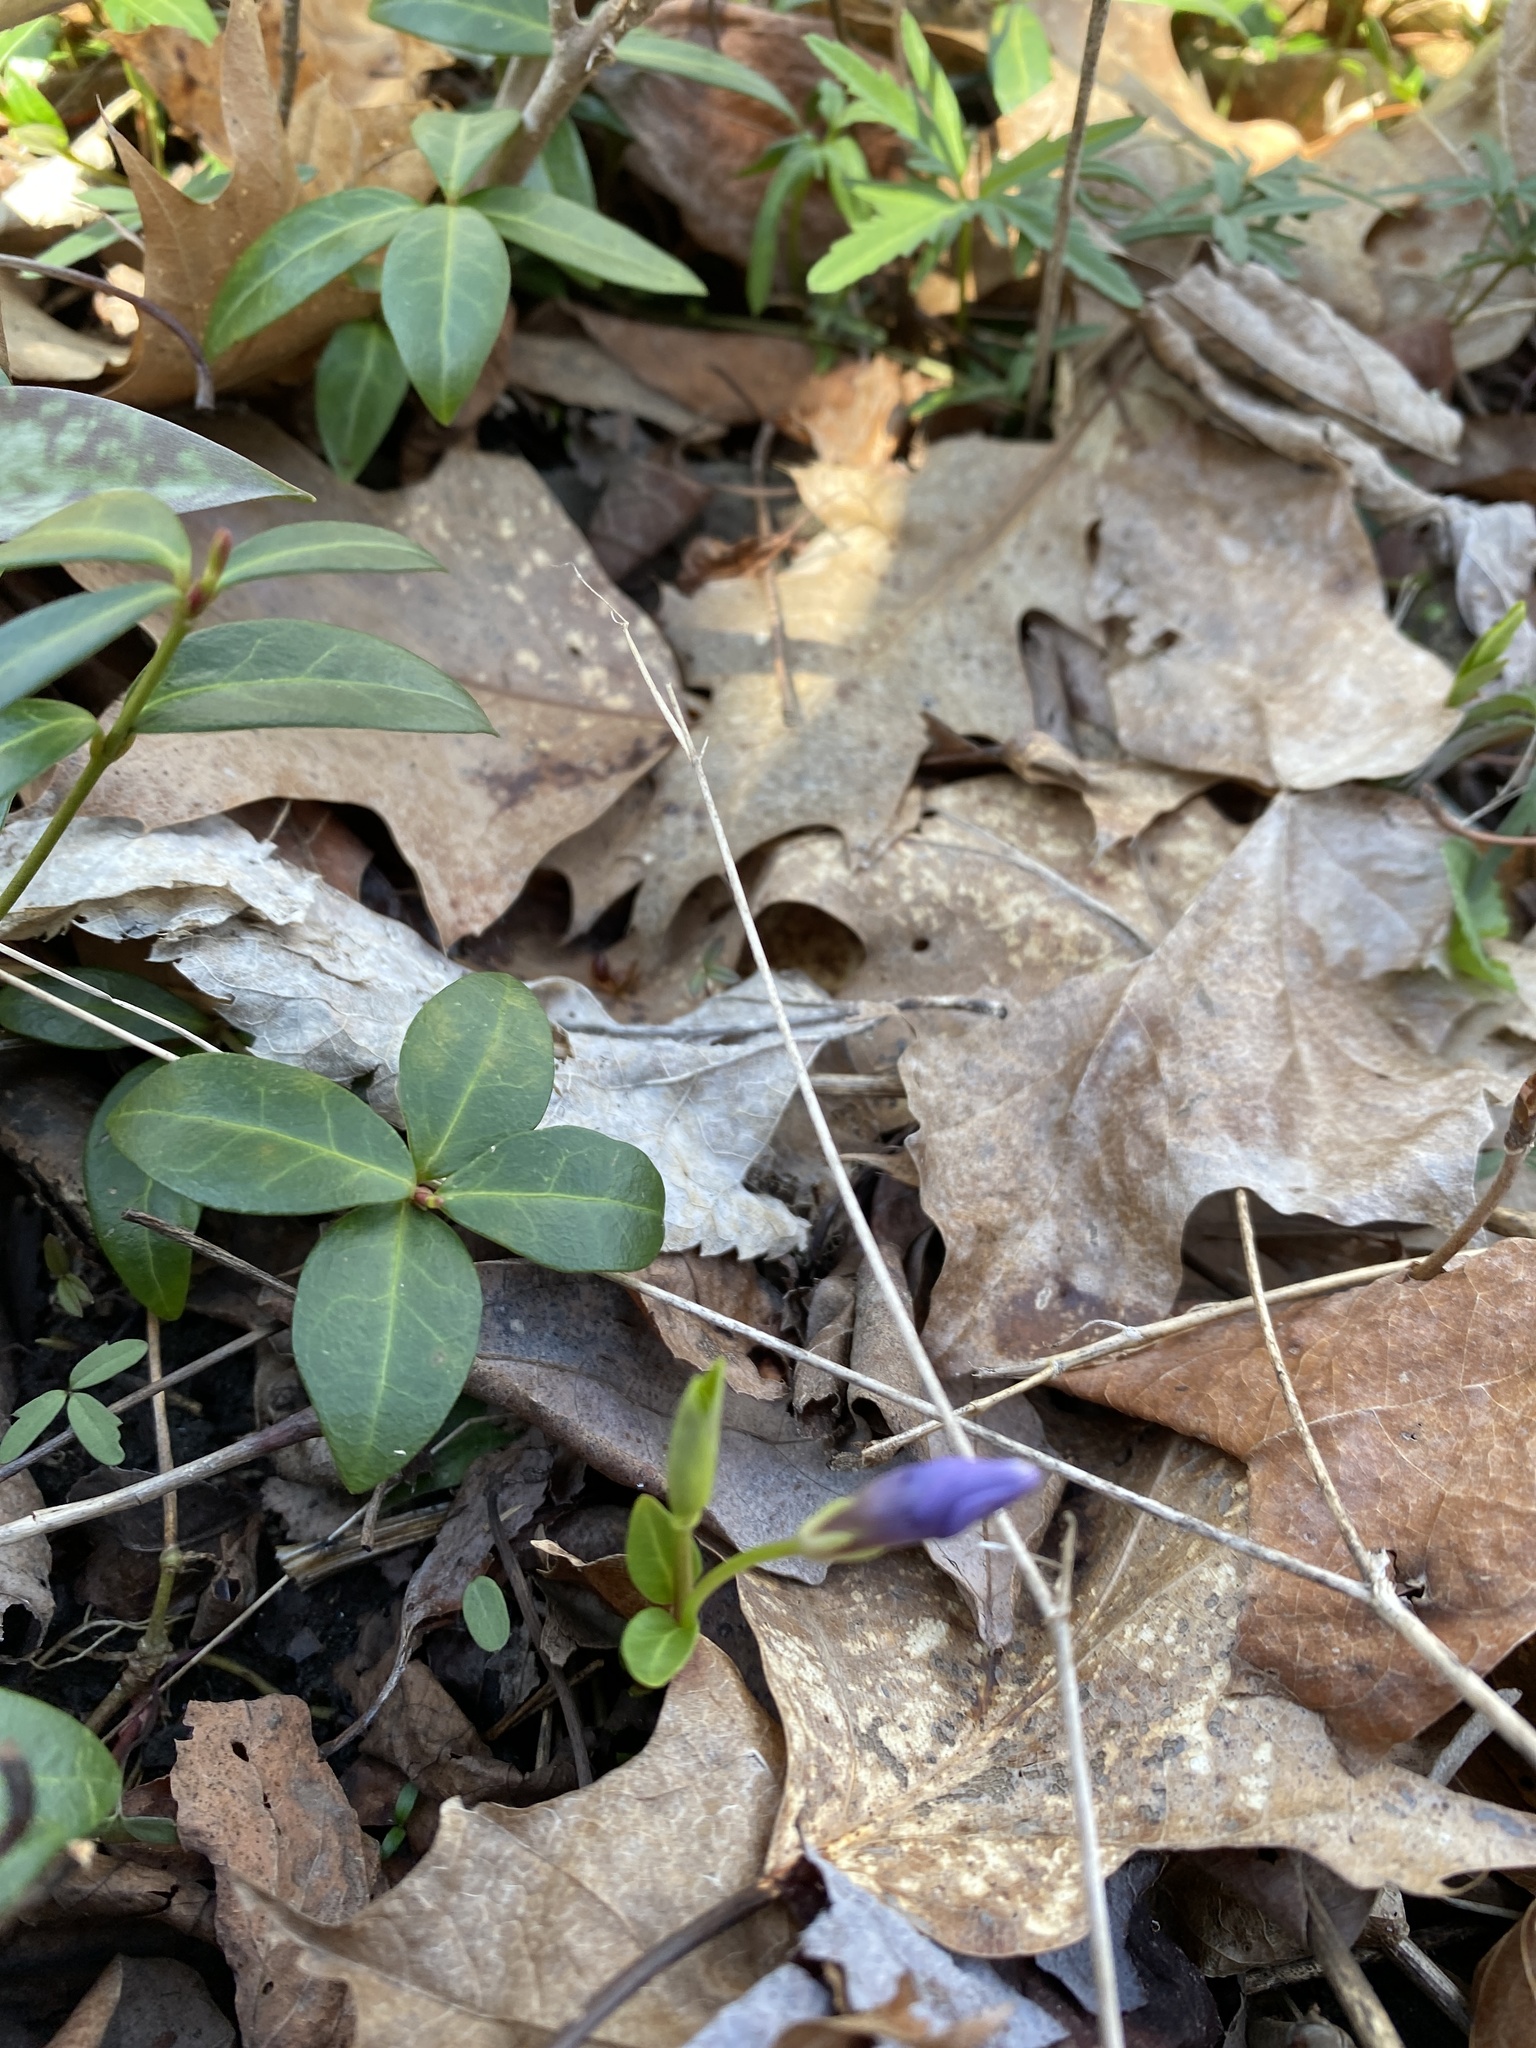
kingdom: Plantae
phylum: Tracheophyta
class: Magnoliopsida
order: Gentianales
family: Apocynaceae
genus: Vinca
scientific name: Vinca minor
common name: Lesser periwinkle
